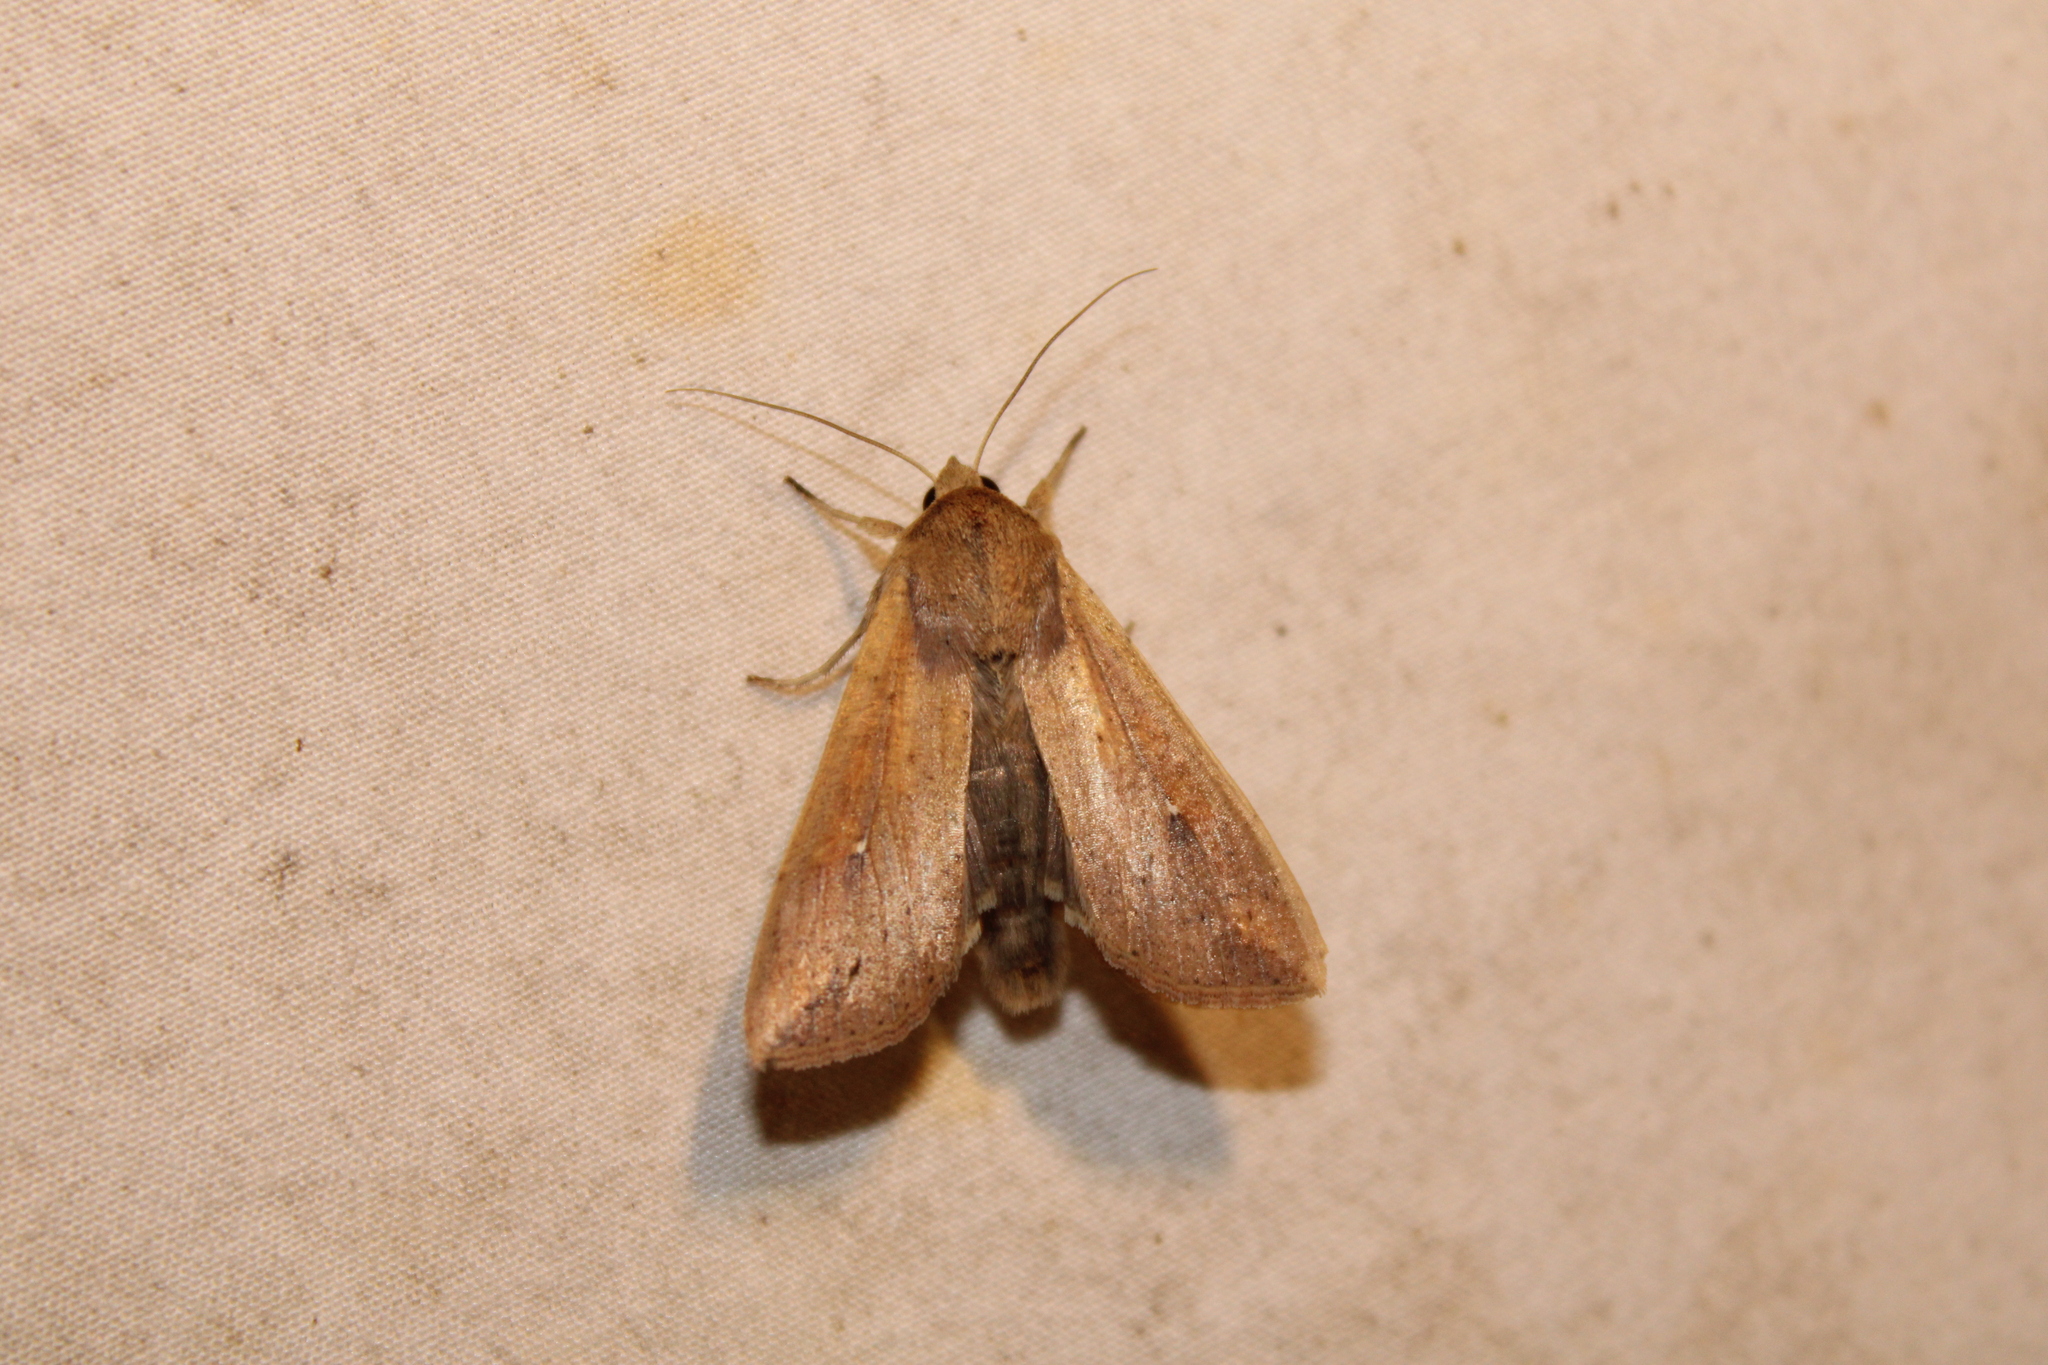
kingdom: Animalia
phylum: Arthropoda
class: Insecta
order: Lepidoptera
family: Noctuidae
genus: Mythimna
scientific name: Mythimna unipuncta
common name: White-speck
